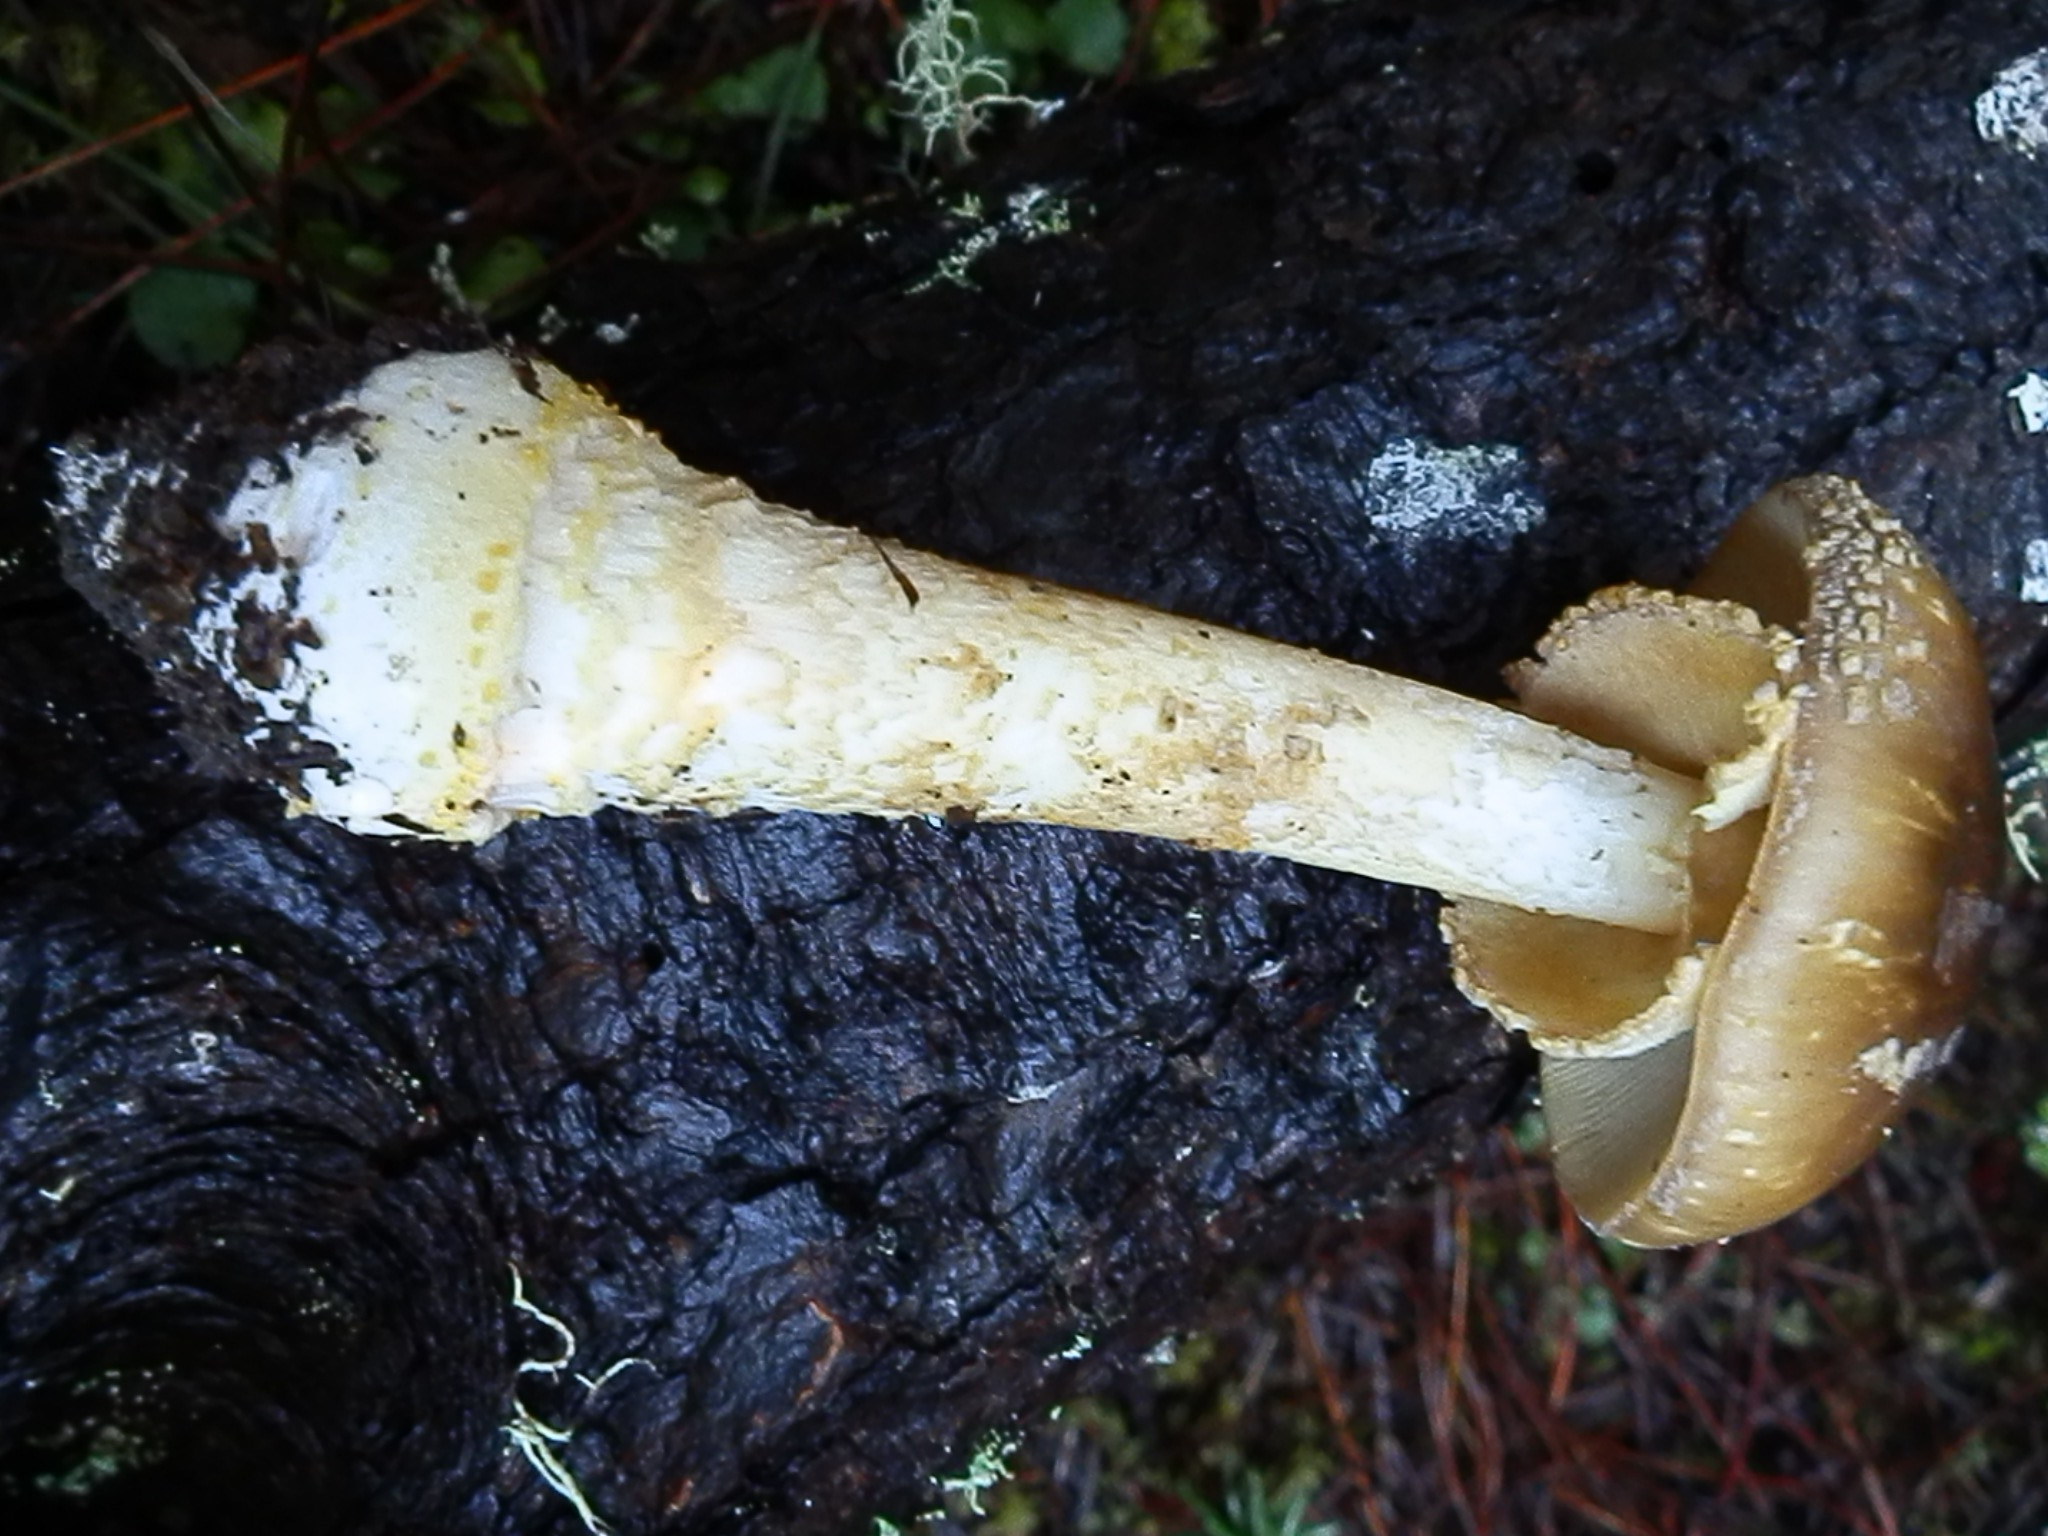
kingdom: Fungi
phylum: Basidiomycota
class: Agaricomycetes
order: Agaricales
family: Amanitaceae
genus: Amanita
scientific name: Amanita augusta
